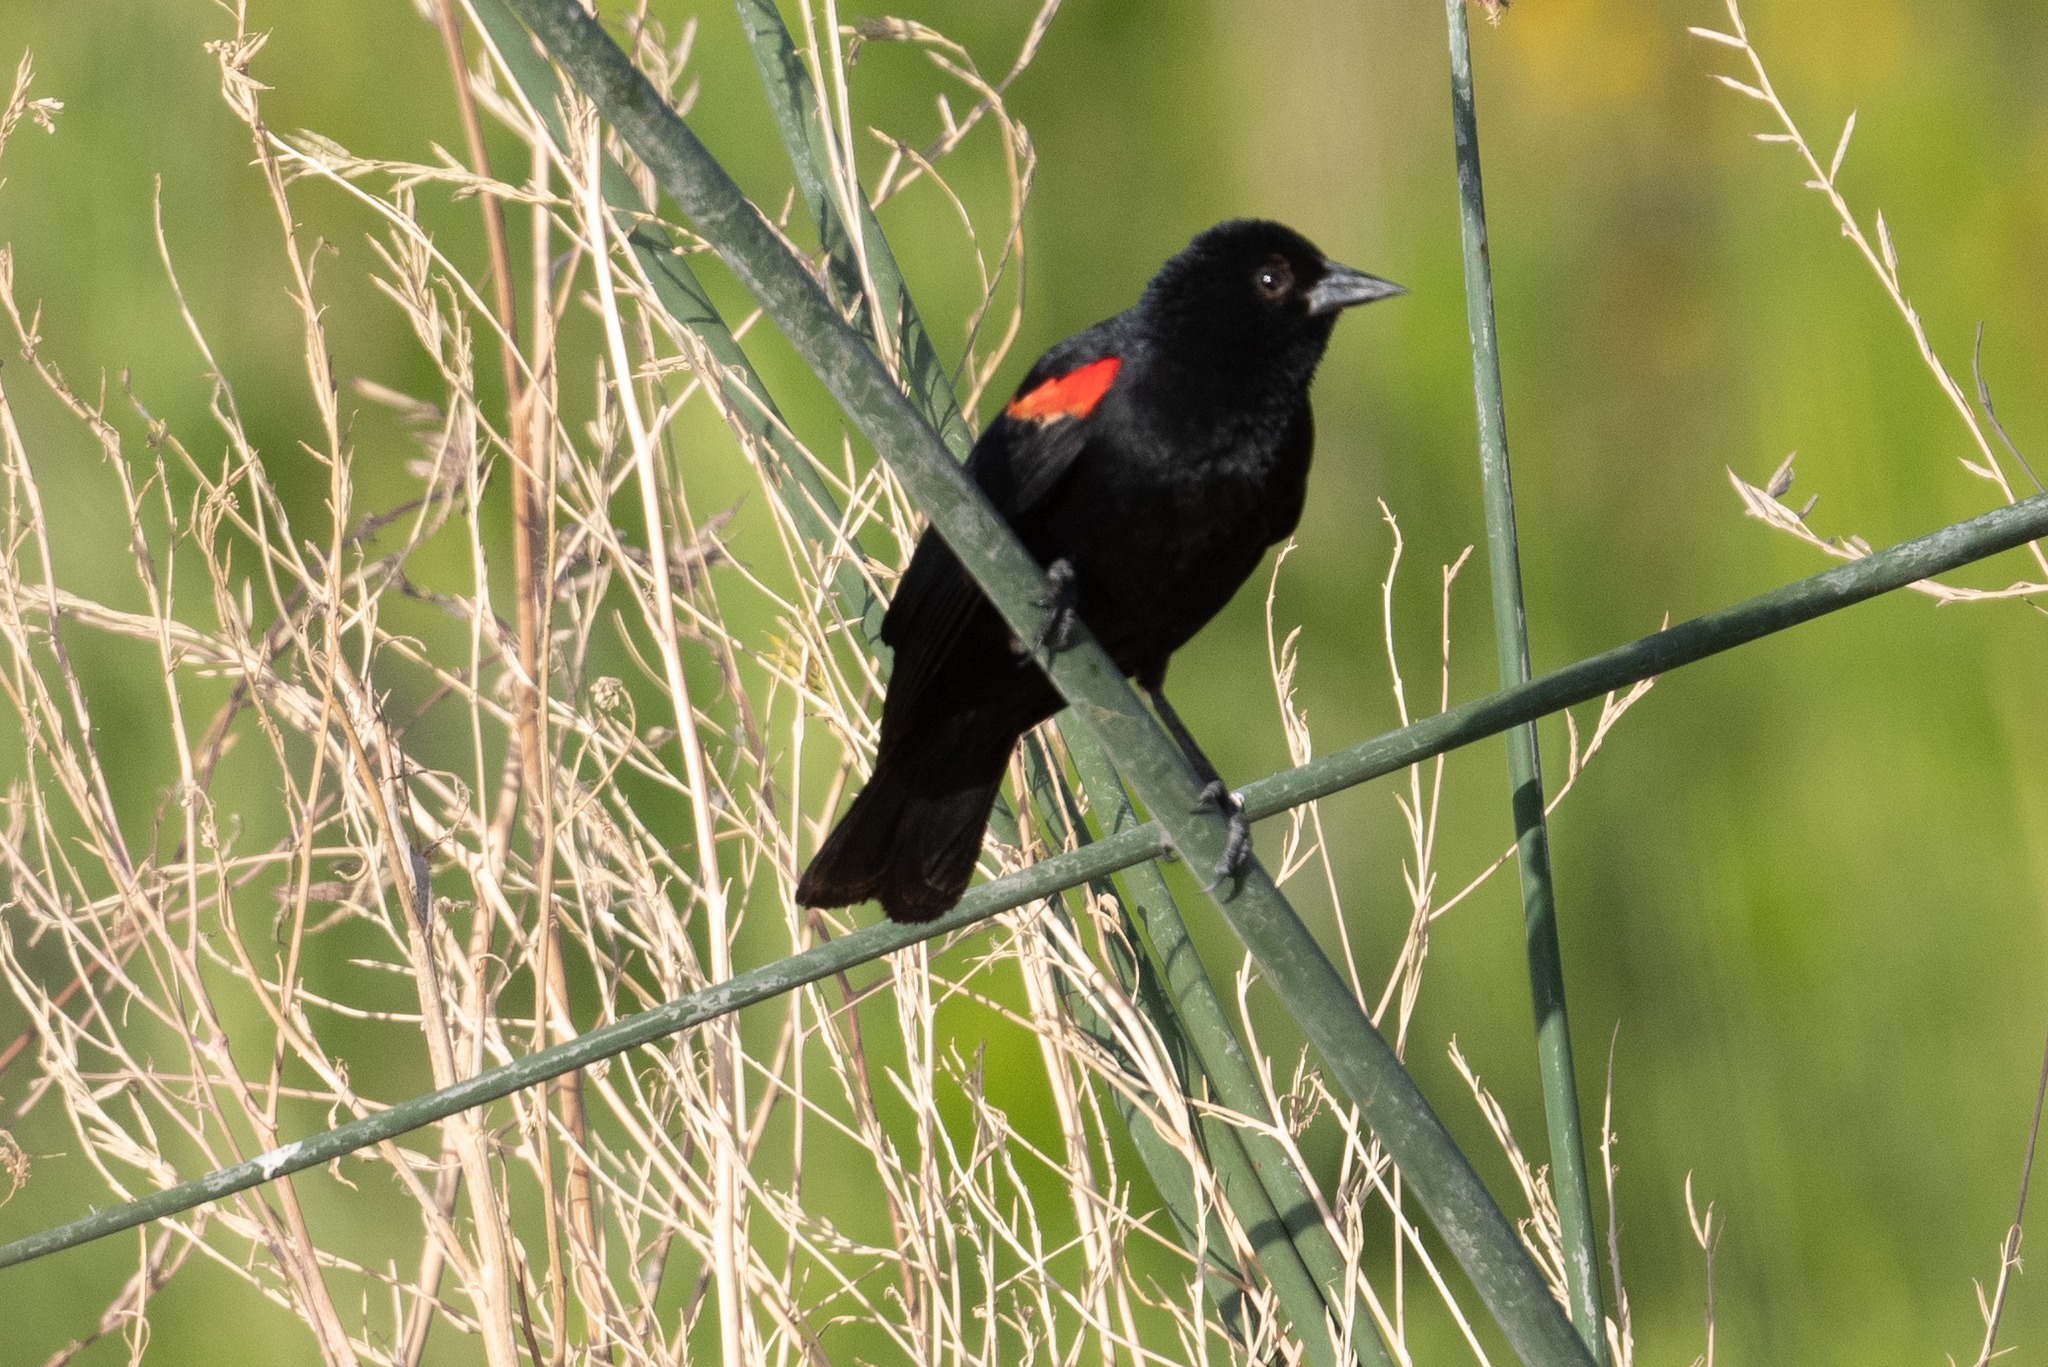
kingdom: Animalia
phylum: Chordata
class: Aves
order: Passeriformes
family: Icteridae
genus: Agelaius
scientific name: Agelaius phoeniceus
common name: Red-winged blackbird
